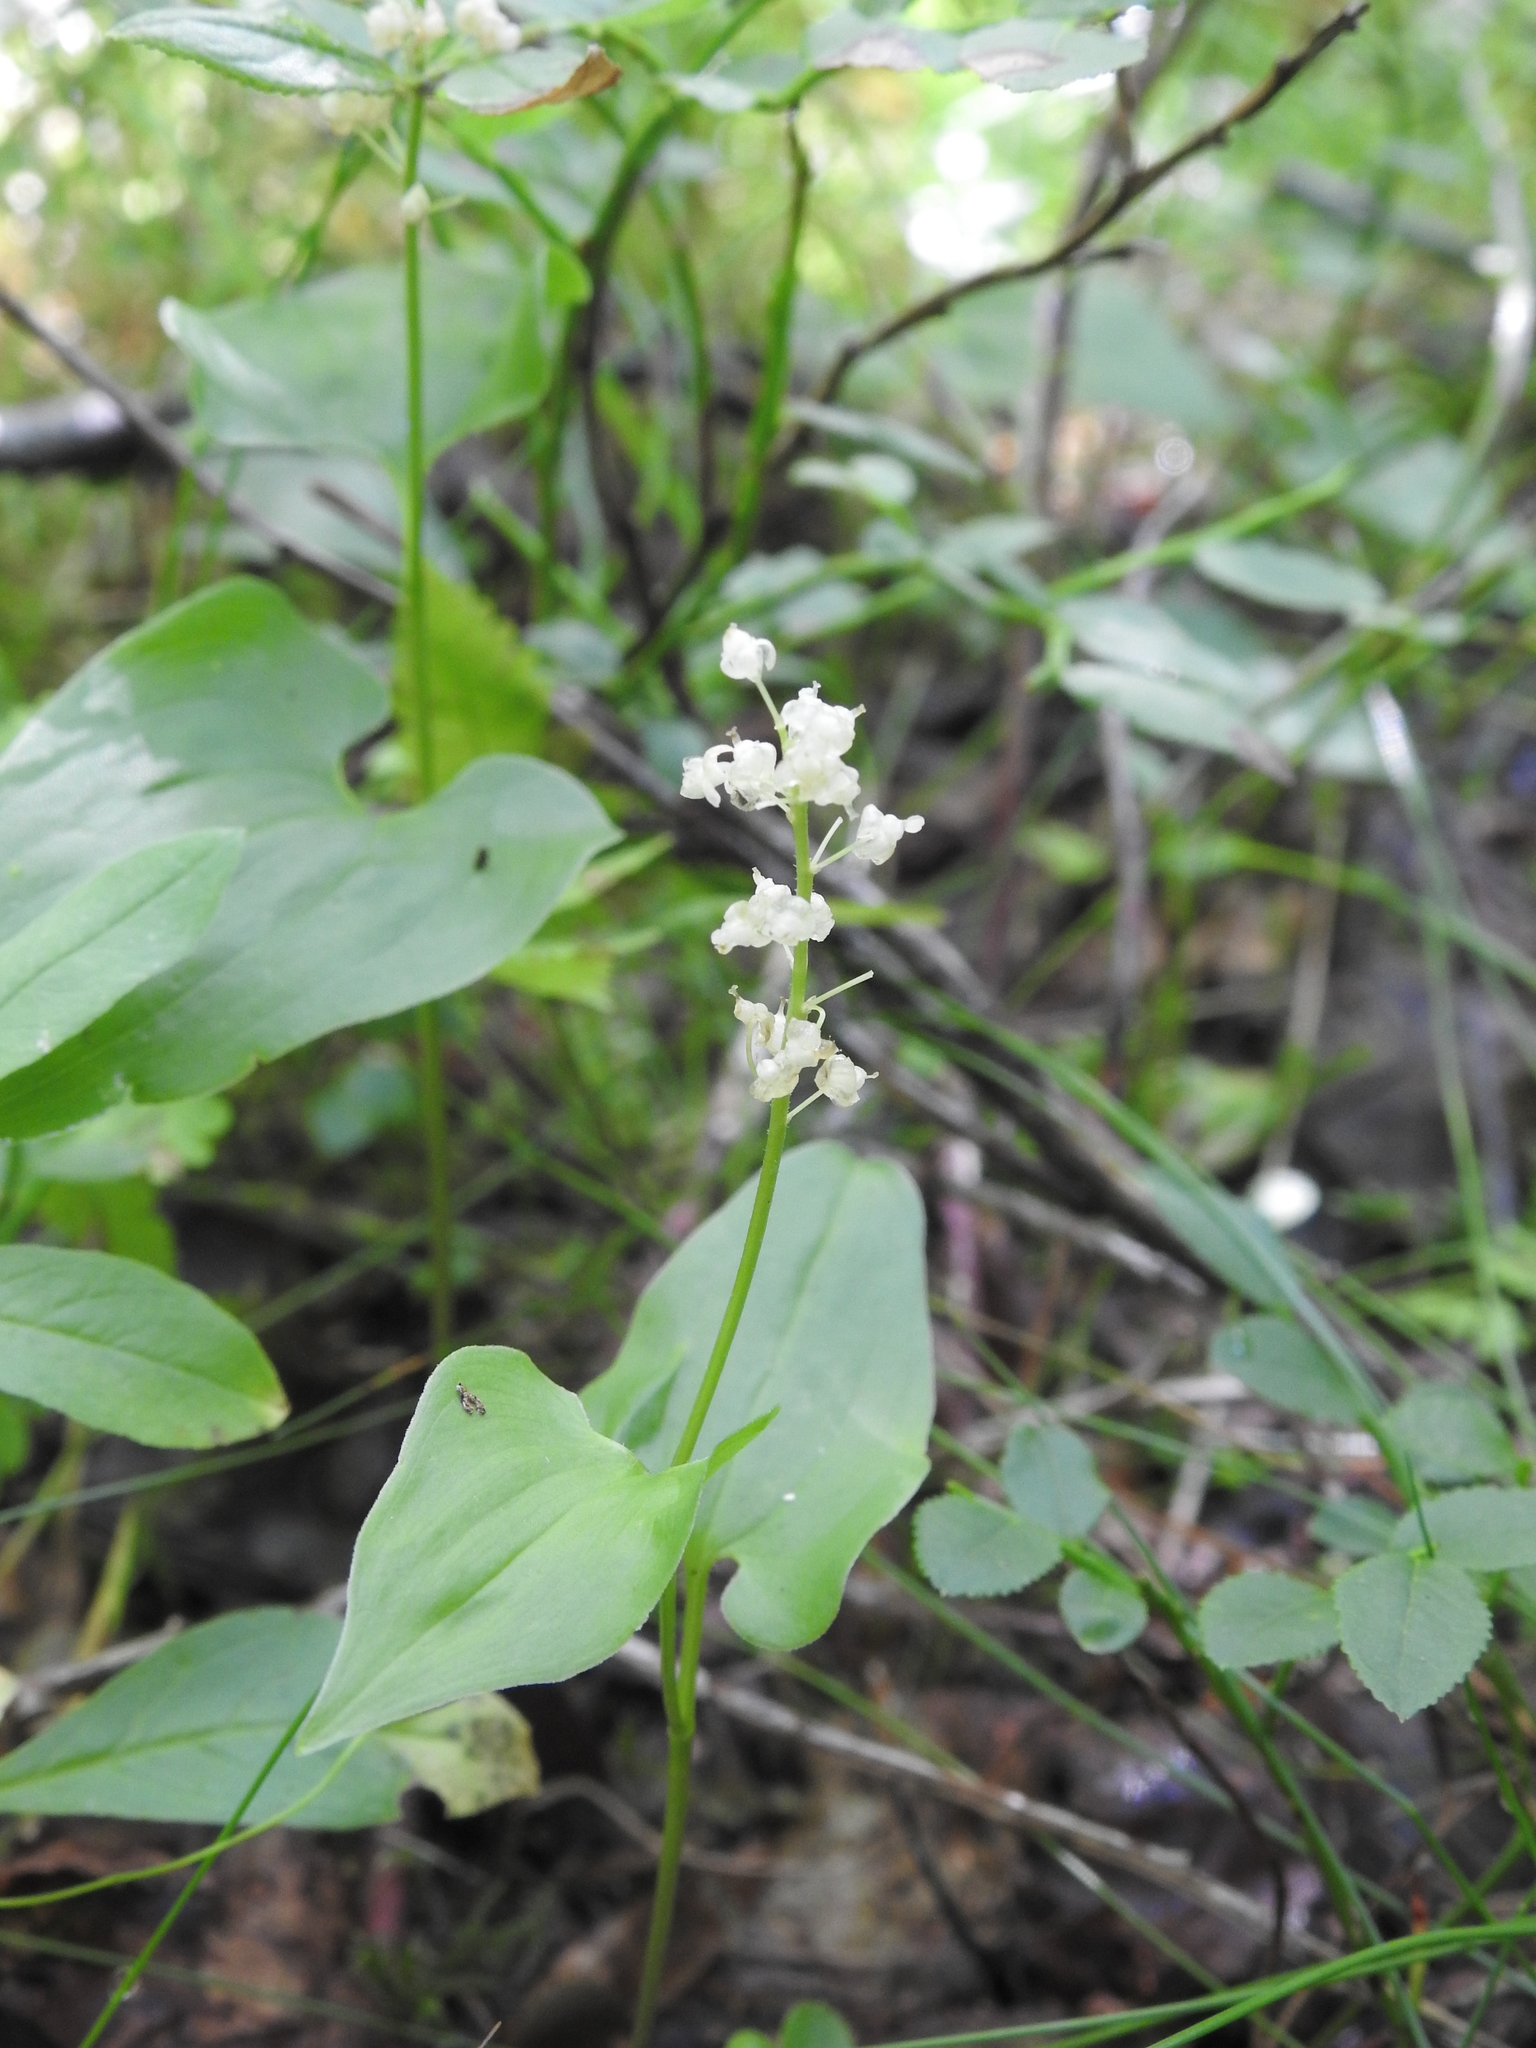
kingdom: Plantae
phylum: Tracheophyta
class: Liliopsida
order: Asparagales
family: Asparagaceae
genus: Maianthemum
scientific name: Maianthemum bifolium
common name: May lily
